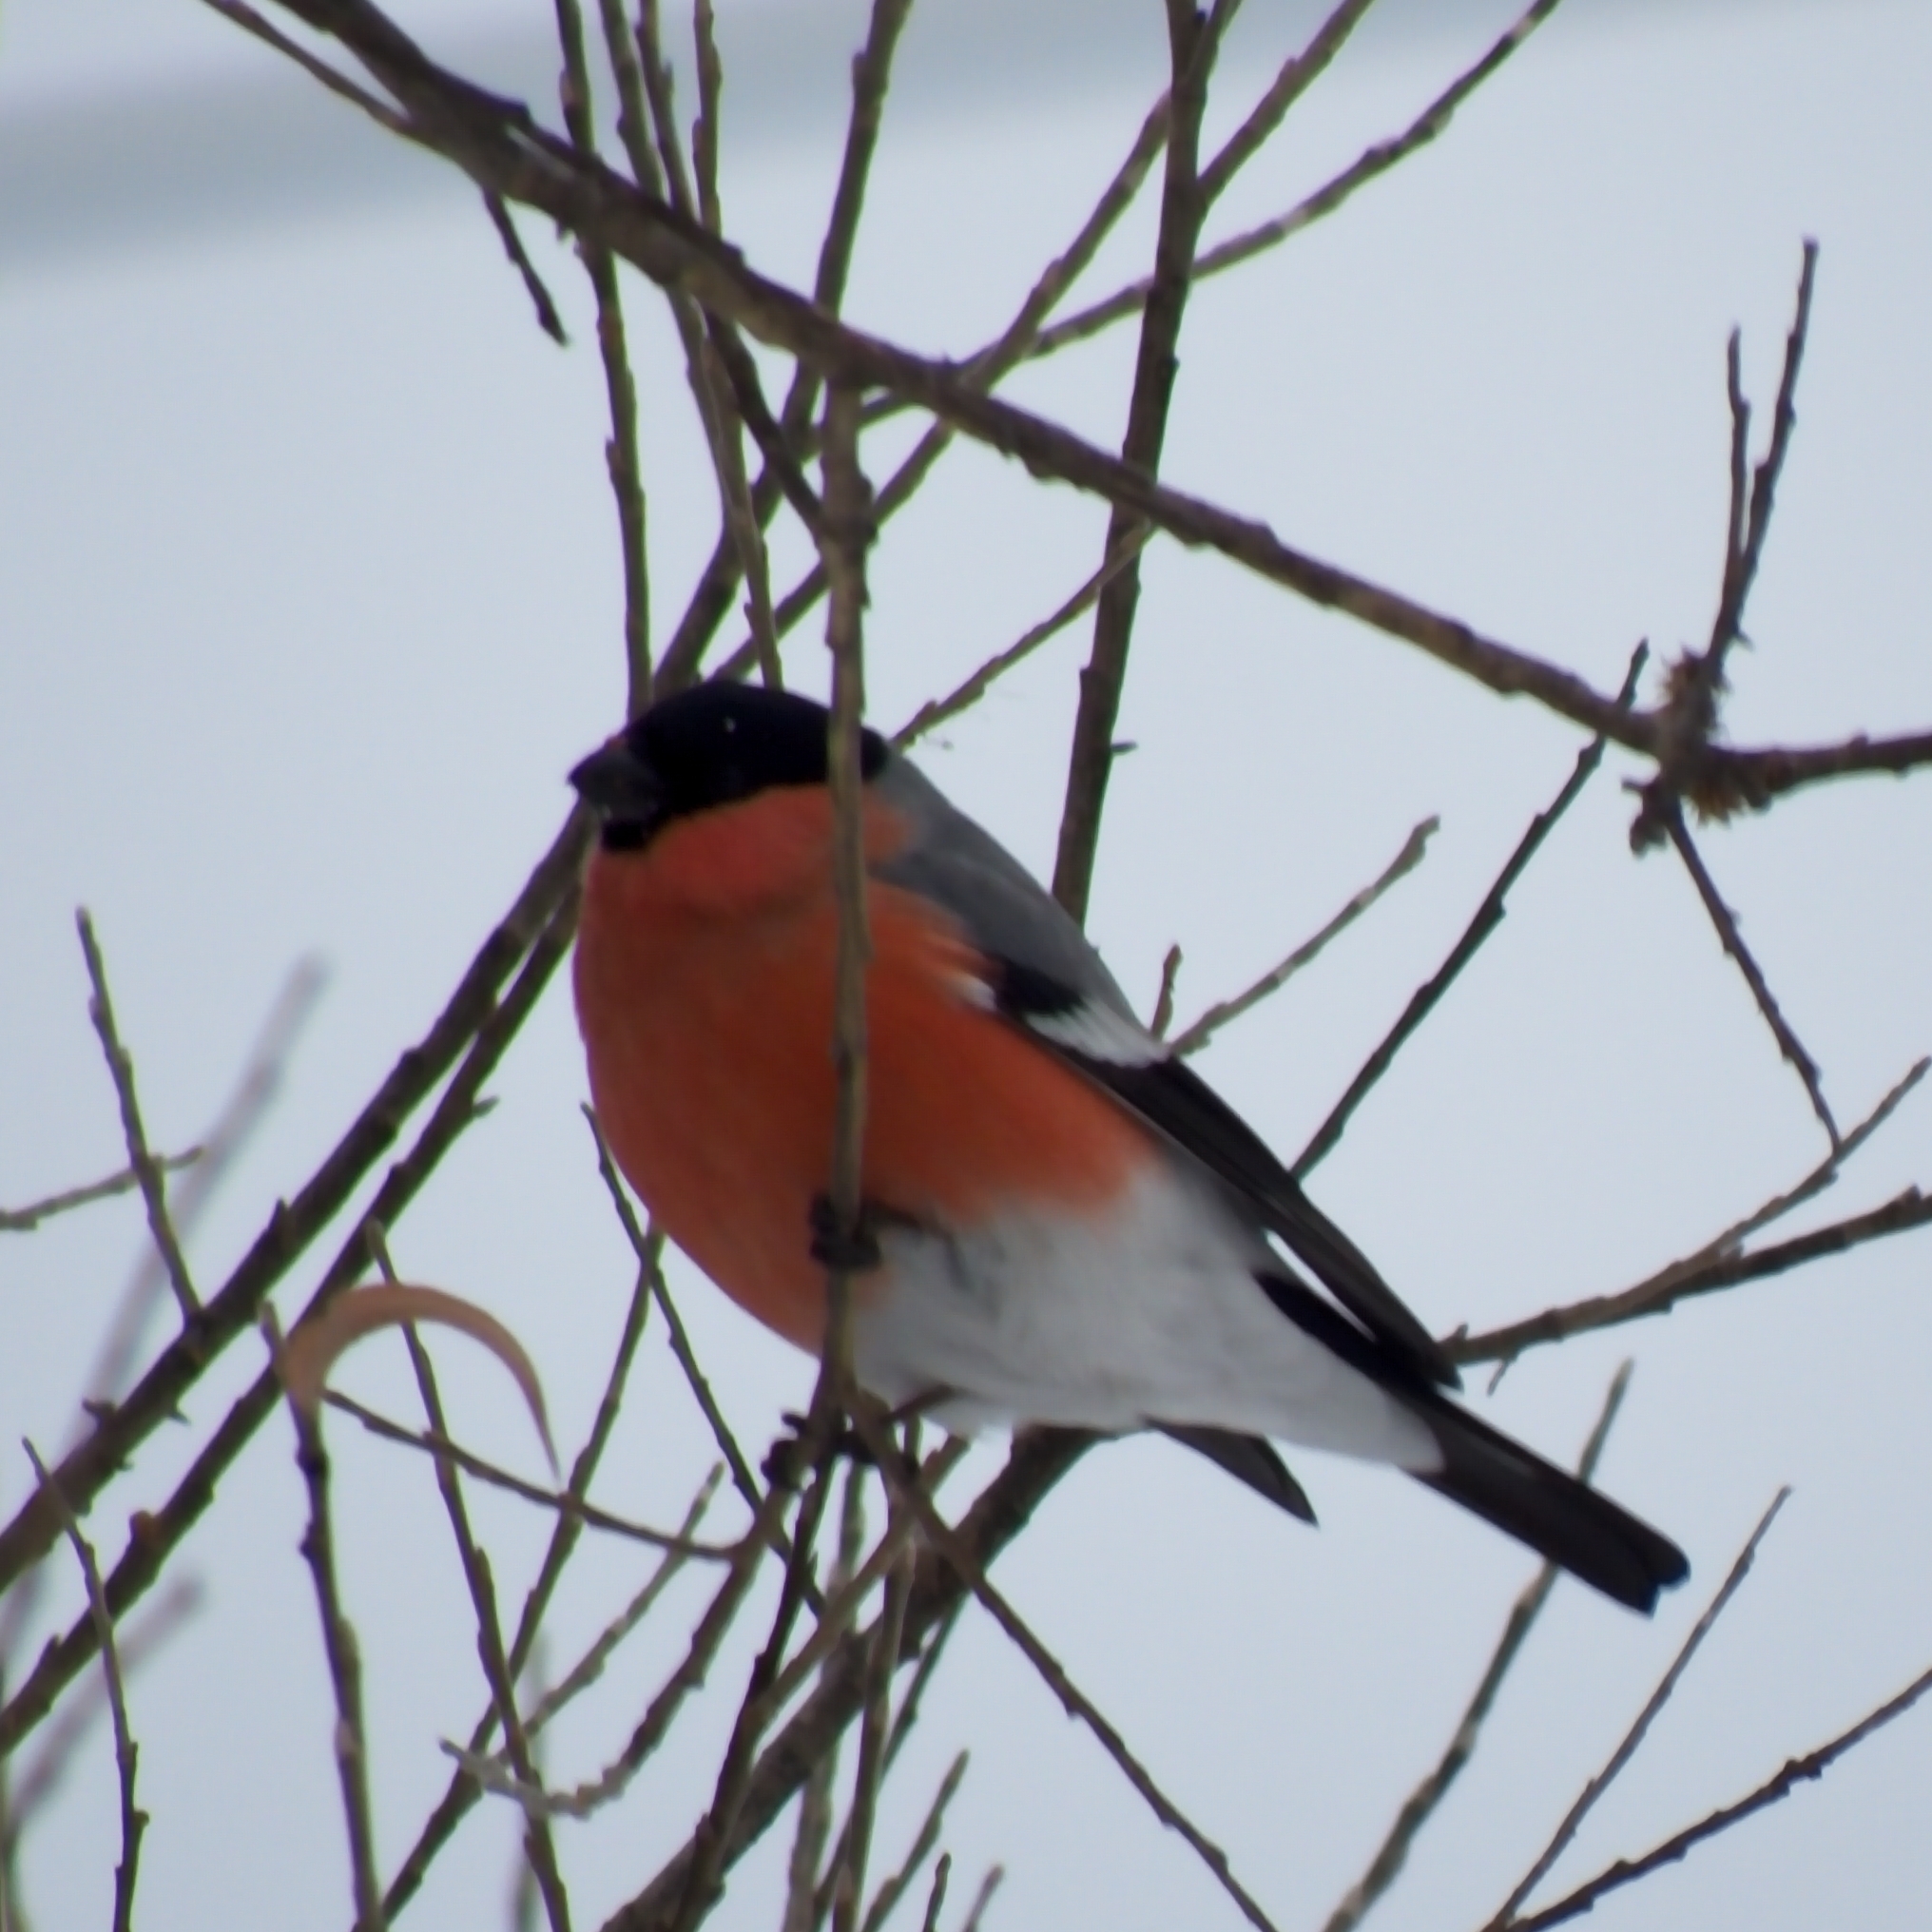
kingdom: Animalia
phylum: Chordata
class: Aves
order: Passeriformes
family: Fringillidae
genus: Pyrrhula
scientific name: Pyrrhula pyrrhula
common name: Eurasian bullfinch
